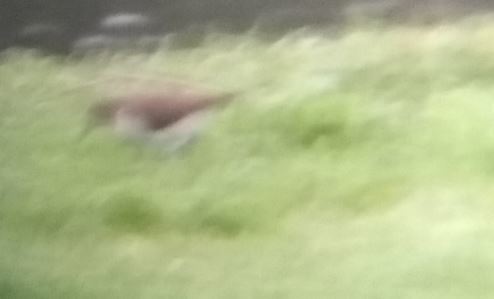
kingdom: Animalia
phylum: Chordata
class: Aves
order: Charadriiformes
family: Scolopacidae
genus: Actitis
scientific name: Actitis hypoleucos
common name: Common sandpiper
